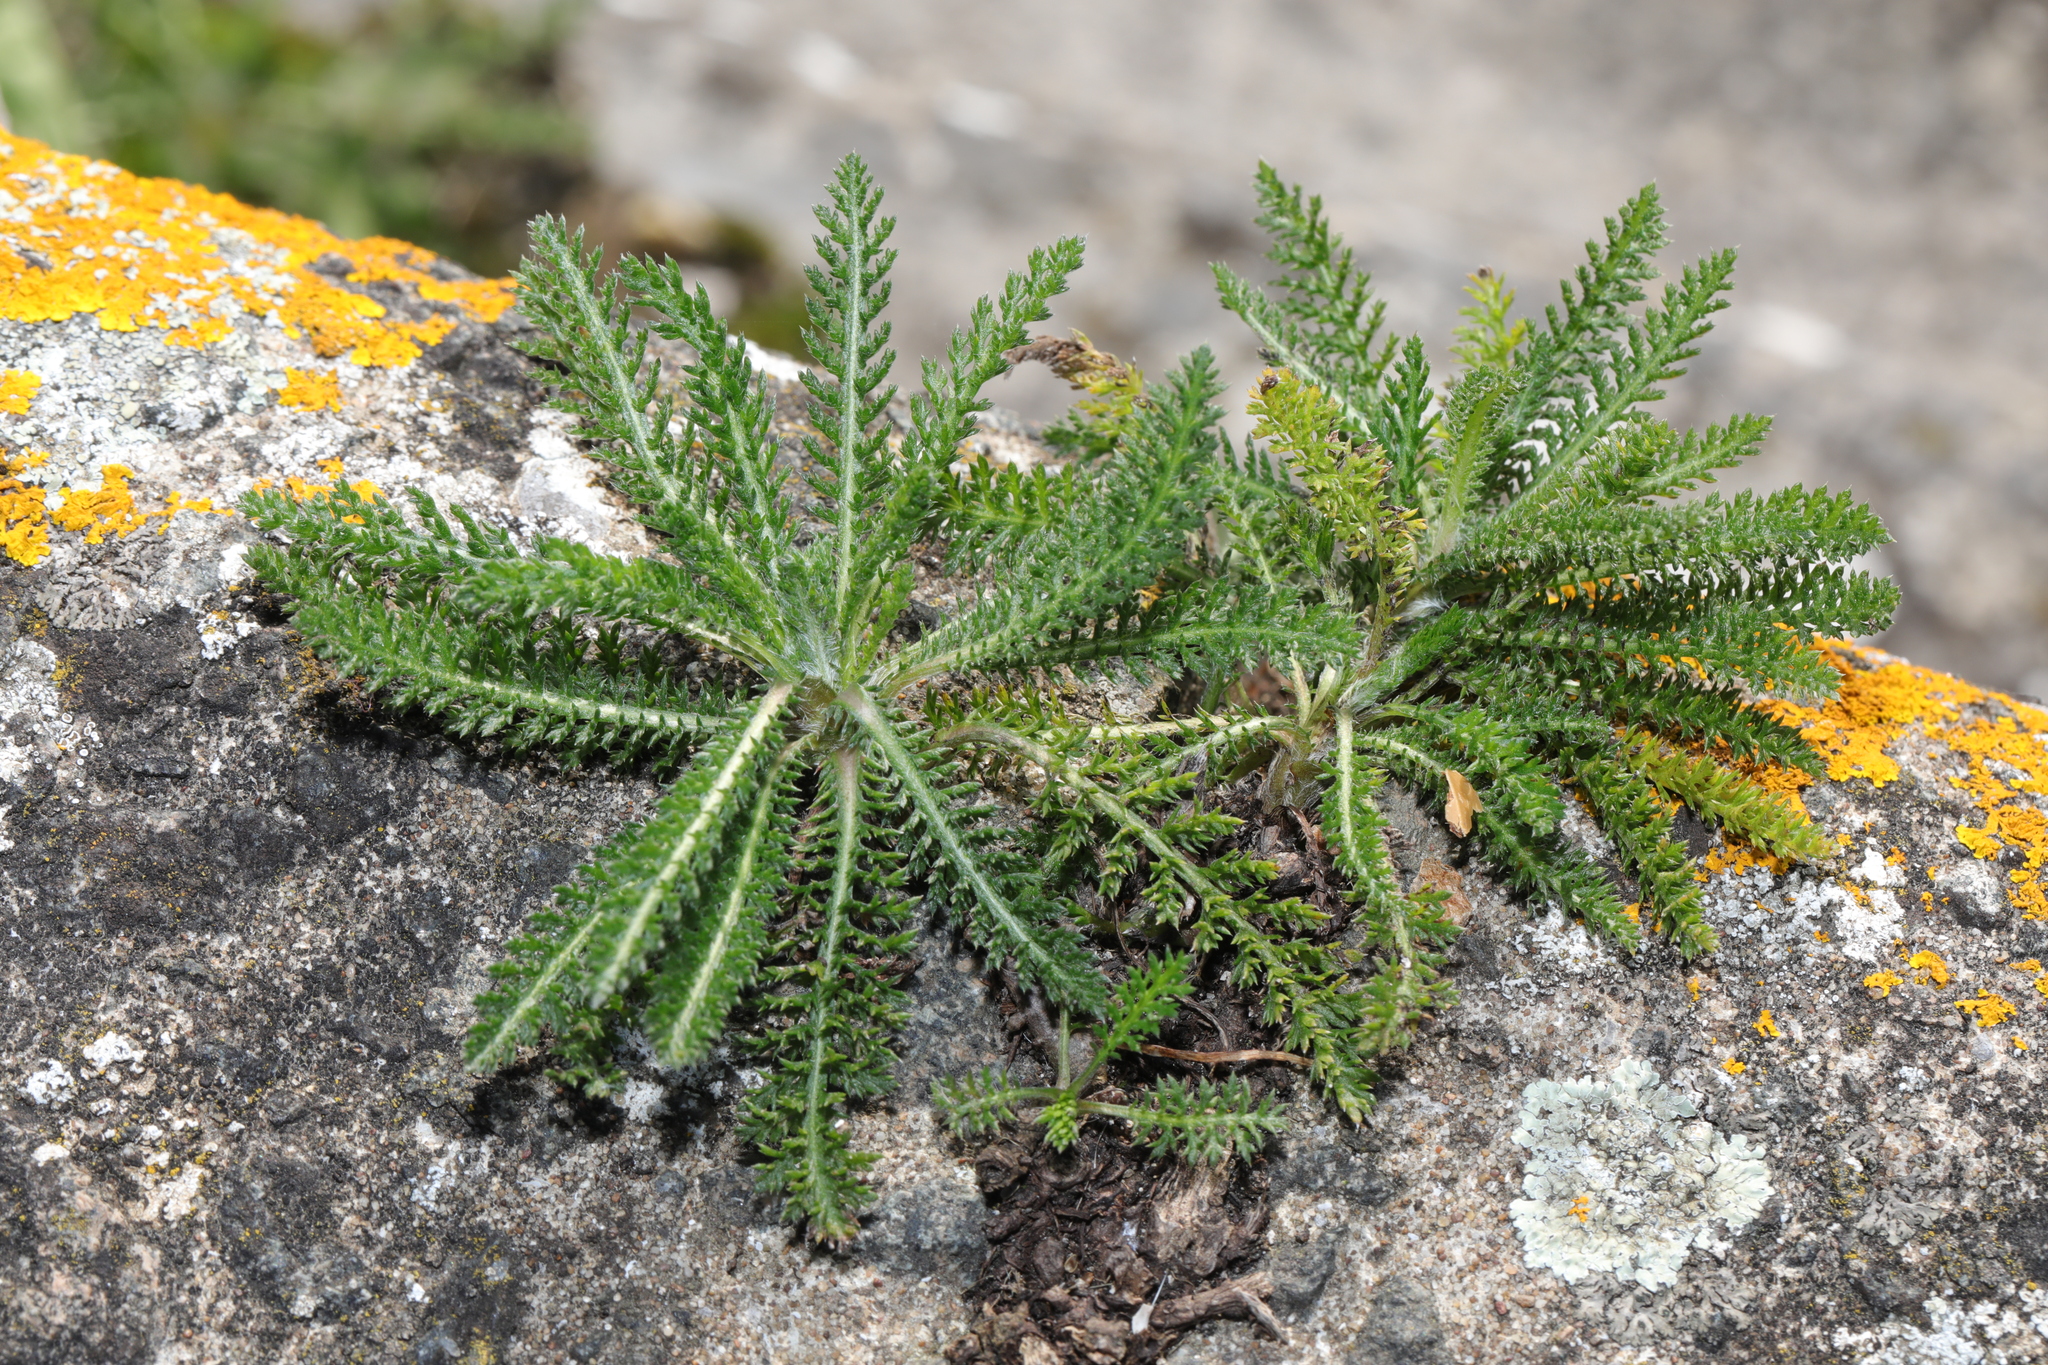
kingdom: Plantae
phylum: Tracheophyta
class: Magnoliopsida
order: Asterales
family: Asteraceae
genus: Achillea
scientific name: Achillea millefolium
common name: Yarrow
